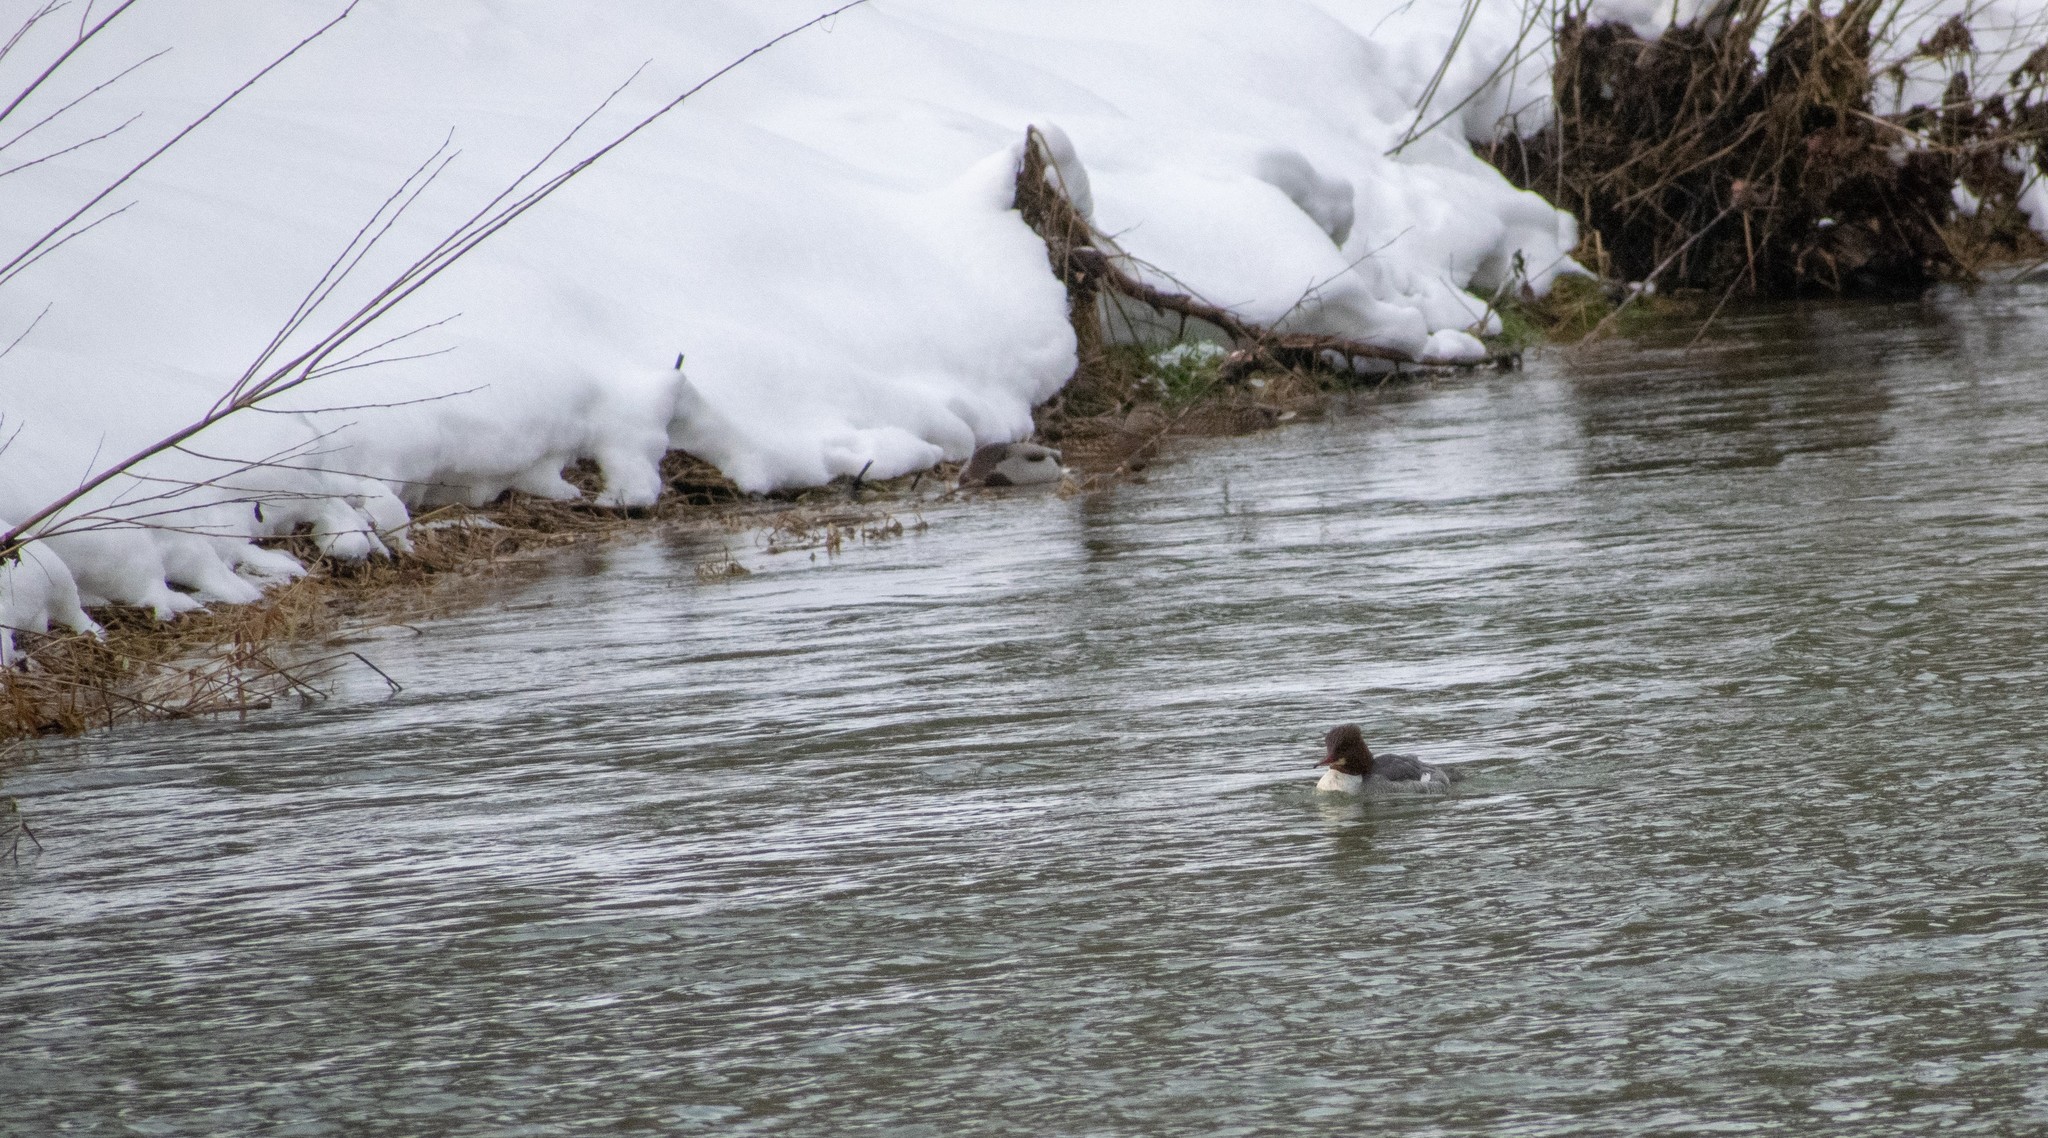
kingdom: Animalia
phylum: Chordata
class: Aves
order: Anseriformes
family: Anatidae
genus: Mergus
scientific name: Mergus merganser
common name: Common merganser
